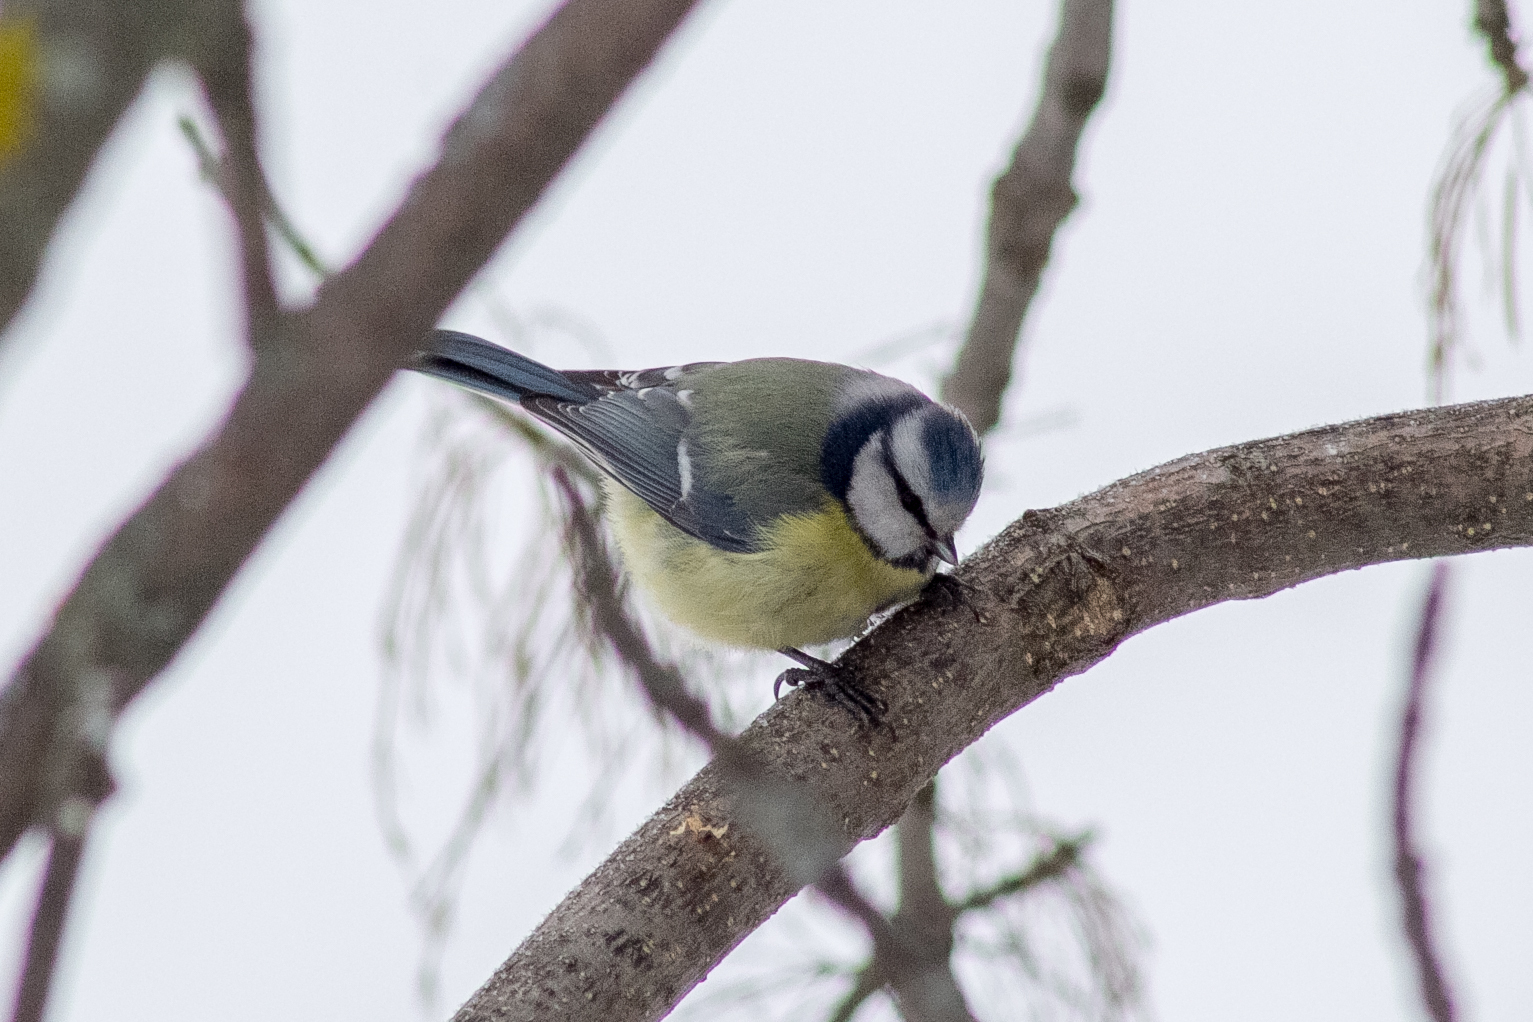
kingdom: Animalia
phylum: Chordata
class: Aves
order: Passeriformes
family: Paridae
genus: Cyanistes
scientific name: Cyanistes caeruleus
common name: Eurasian blue tit
